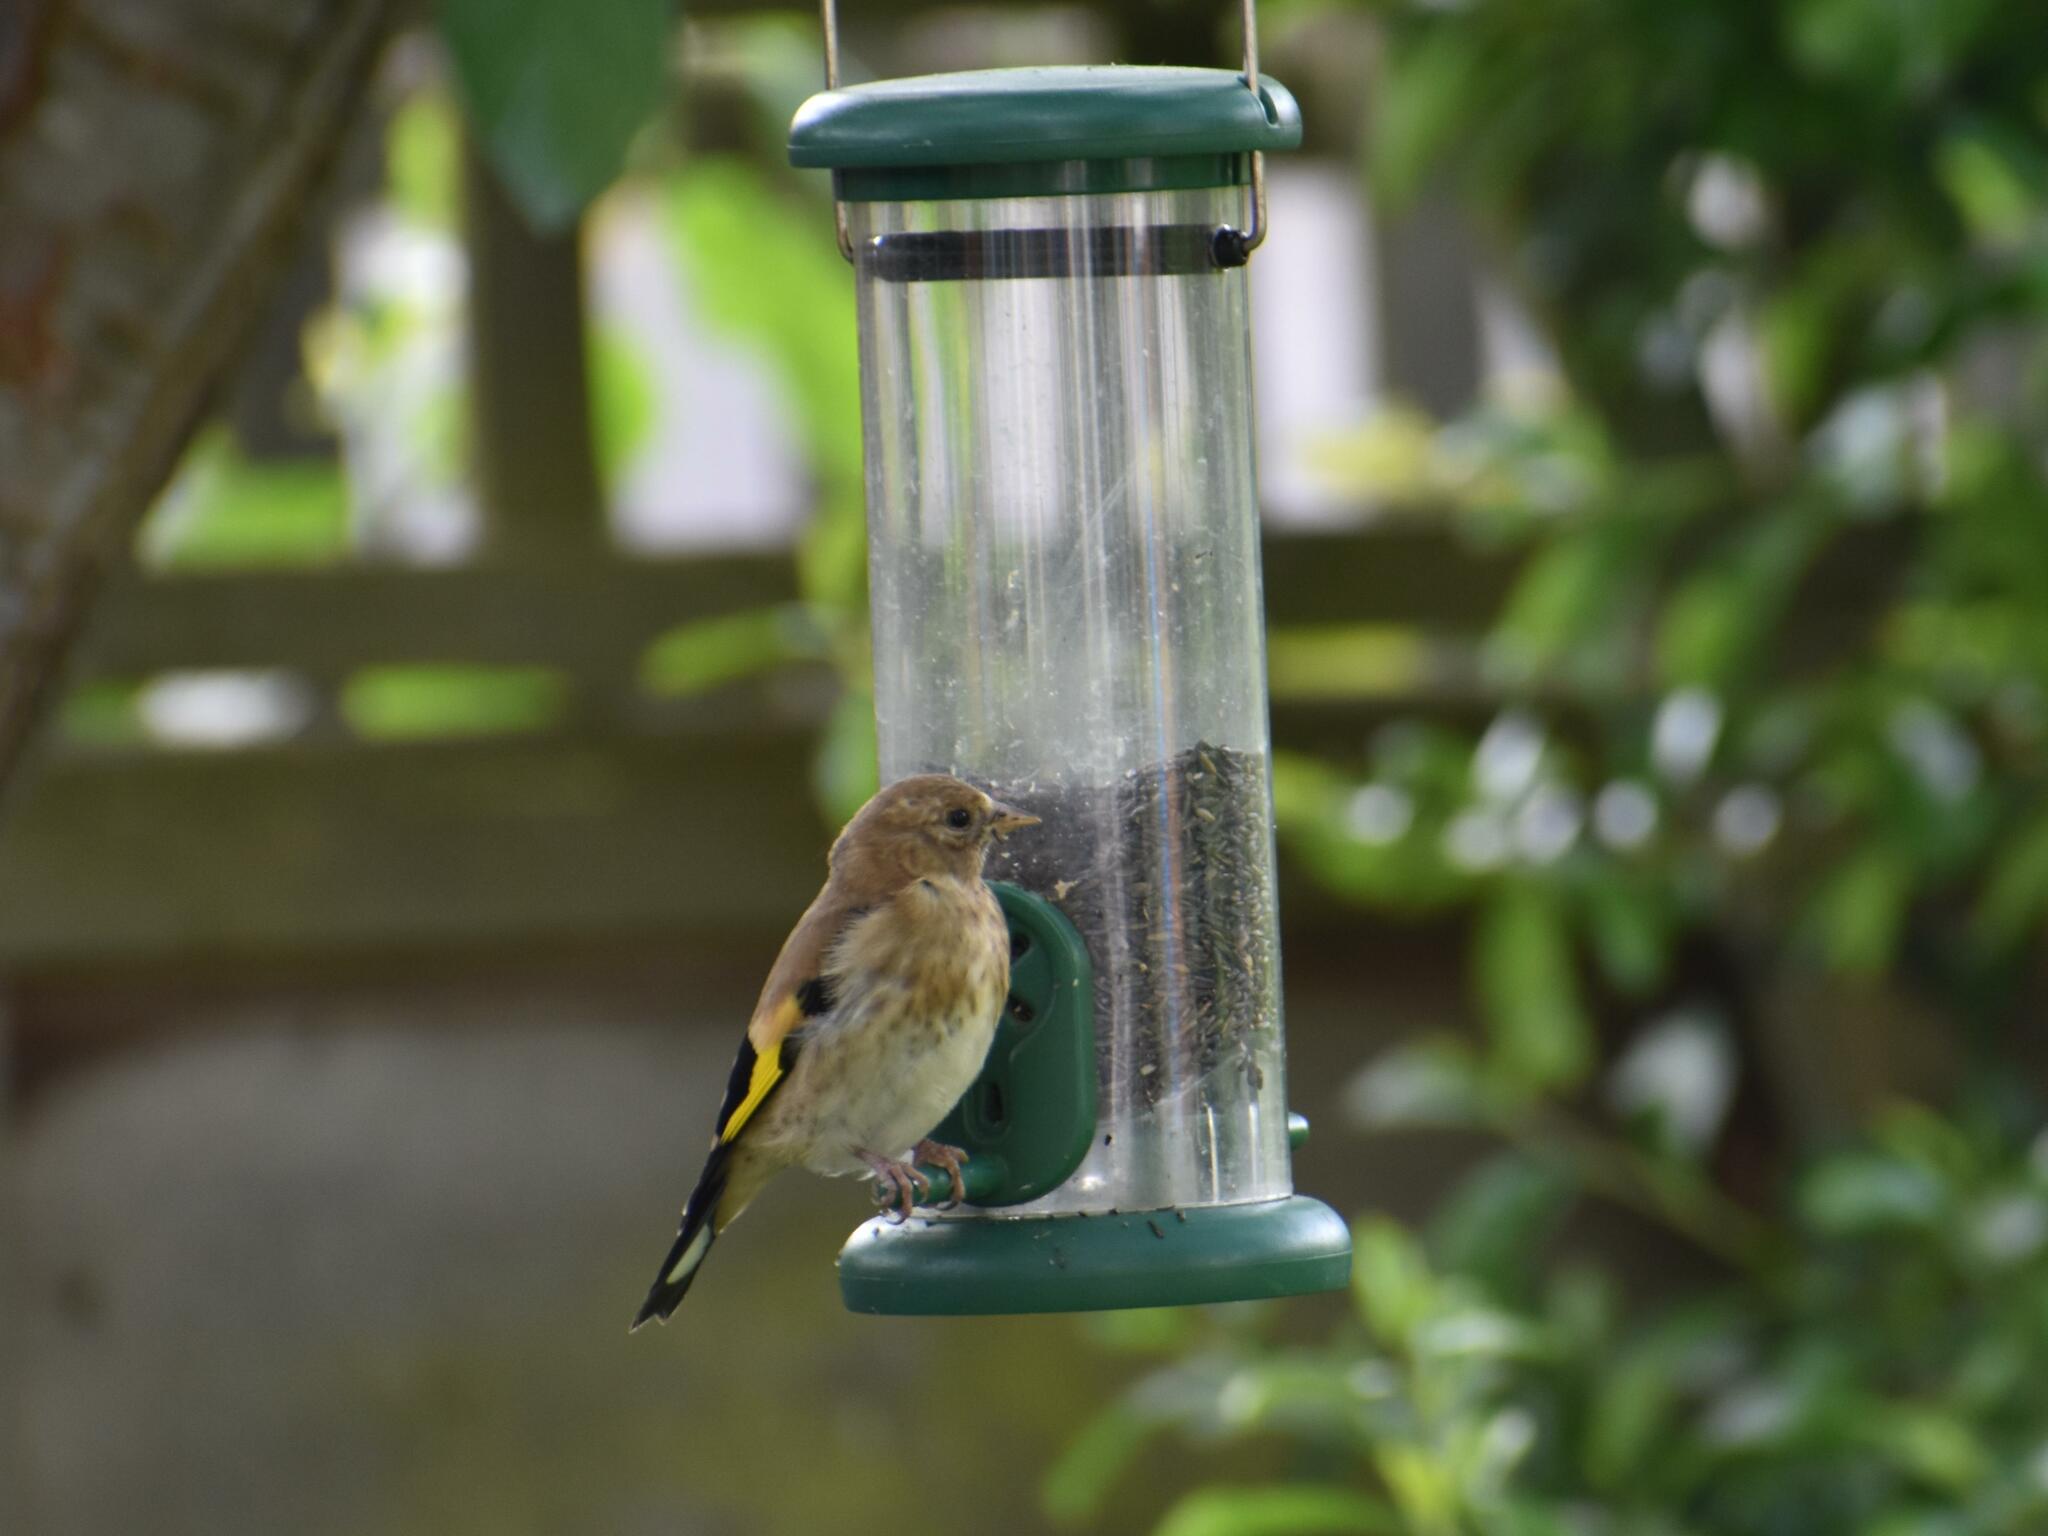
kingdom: Animalia
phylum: Chordata
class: Aves
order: Passeriformes
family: Fringillidae
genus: Carduelis
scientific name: Carduelis carduelis
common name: European goldfinch
